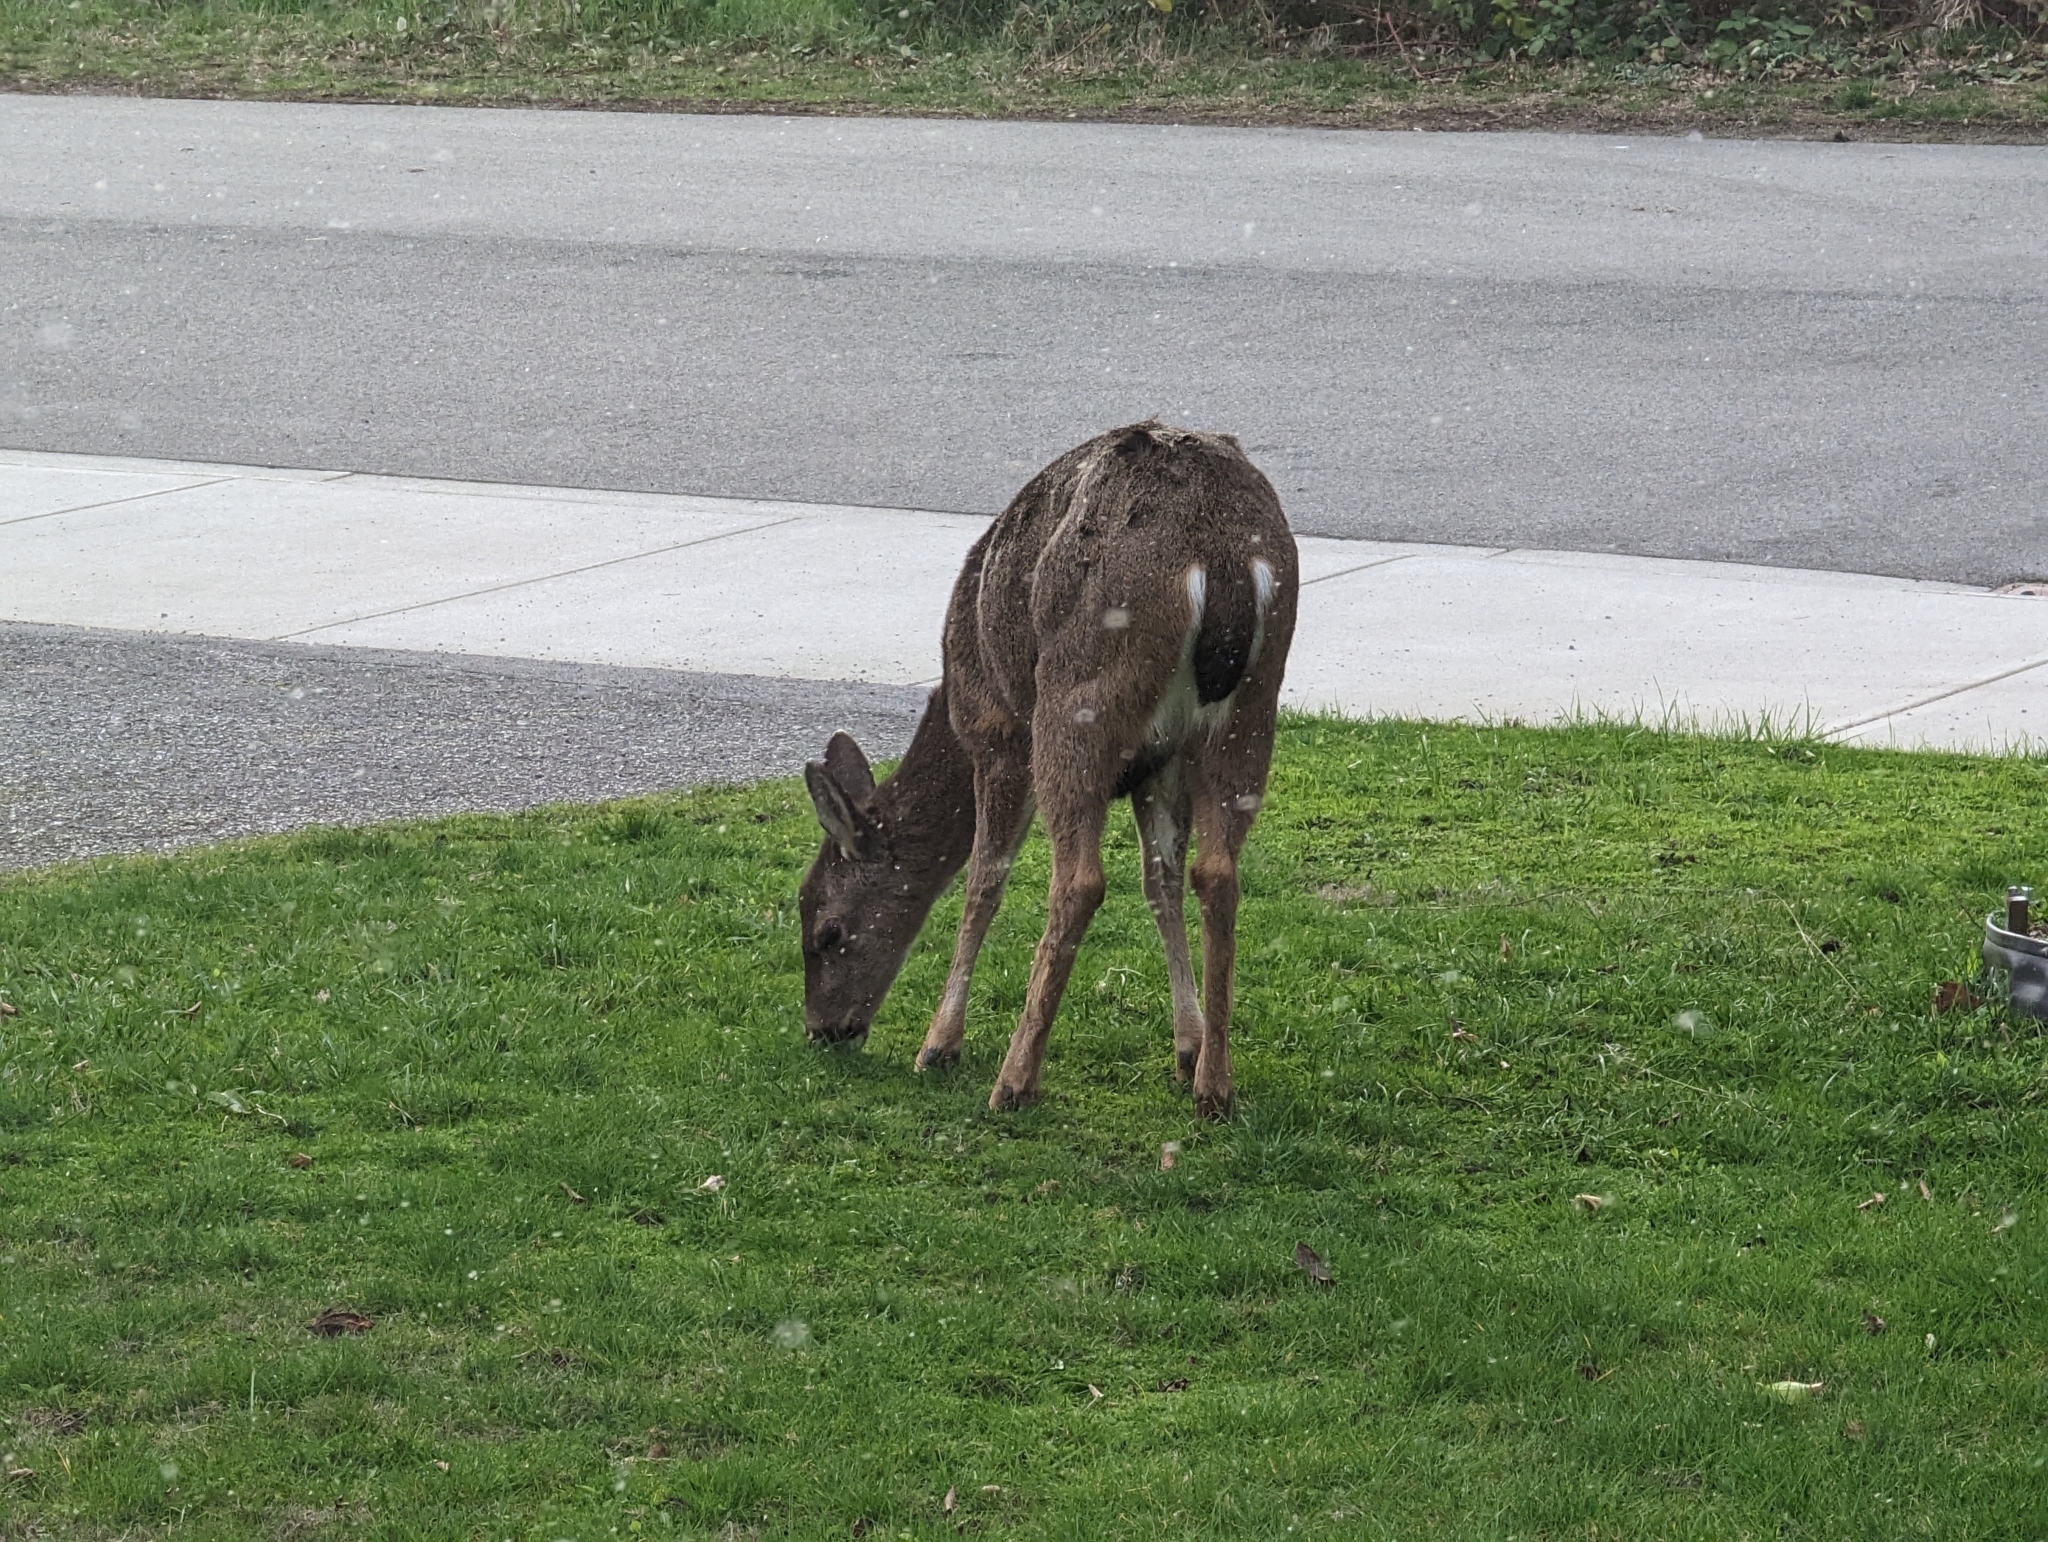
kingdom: Animalia
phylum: Chordata
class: Mammalia
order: Artiodactyla
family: Cervidae
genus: Odocoileus
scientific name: Odocoileus hemionus
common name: Mule deer
